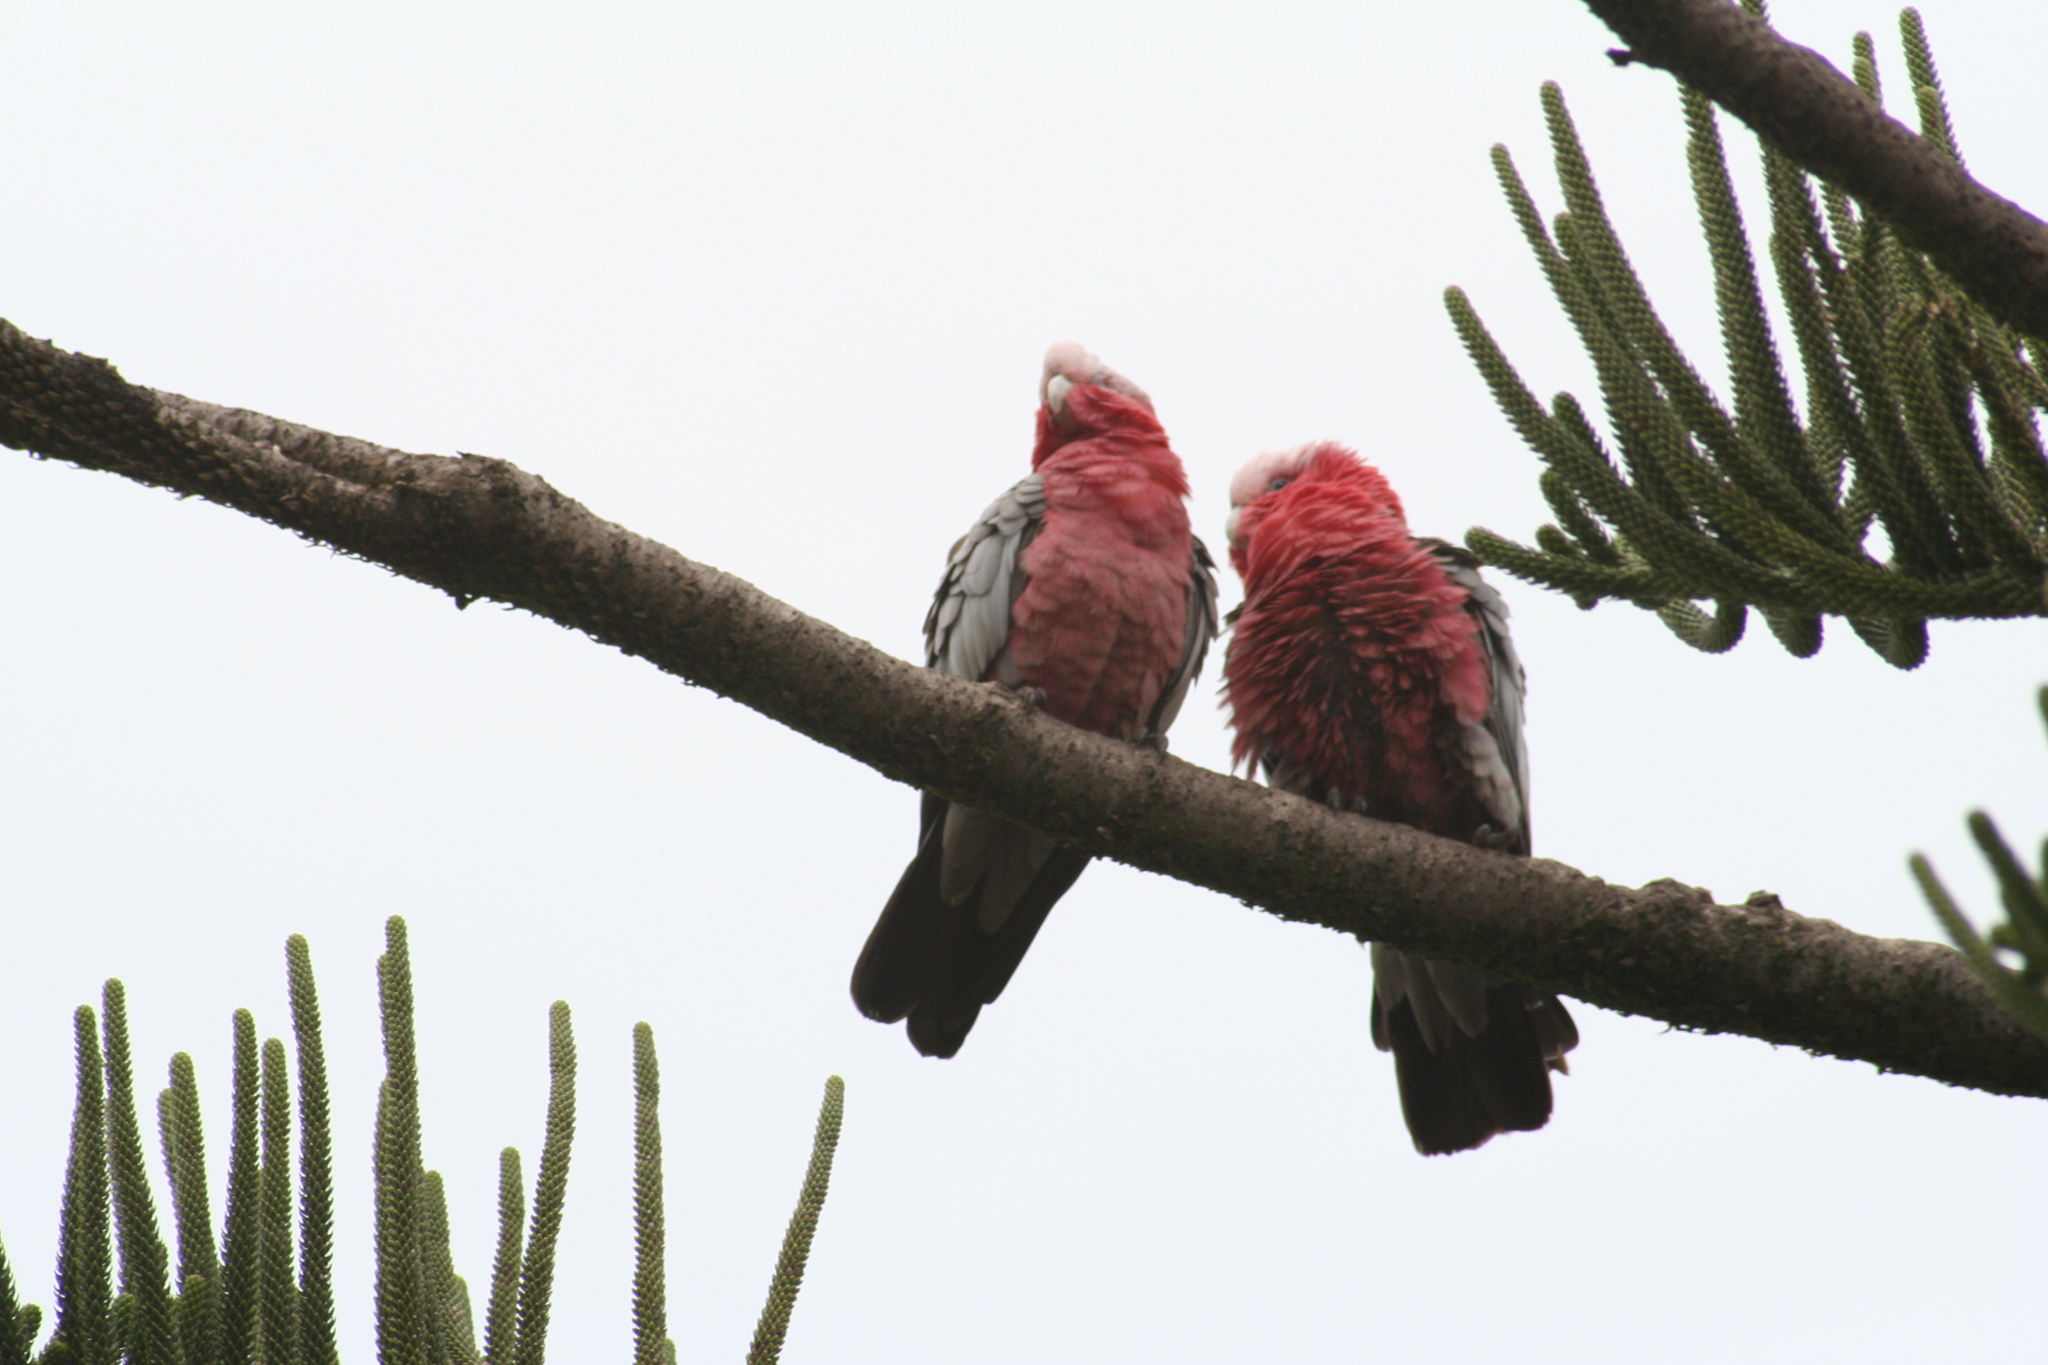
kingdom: Animalia
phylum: Chordata
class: Aves
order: Psittaciformes
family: Psittacidae
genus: Eolophus
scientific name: Eolophus roseicapilla
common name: Galah
